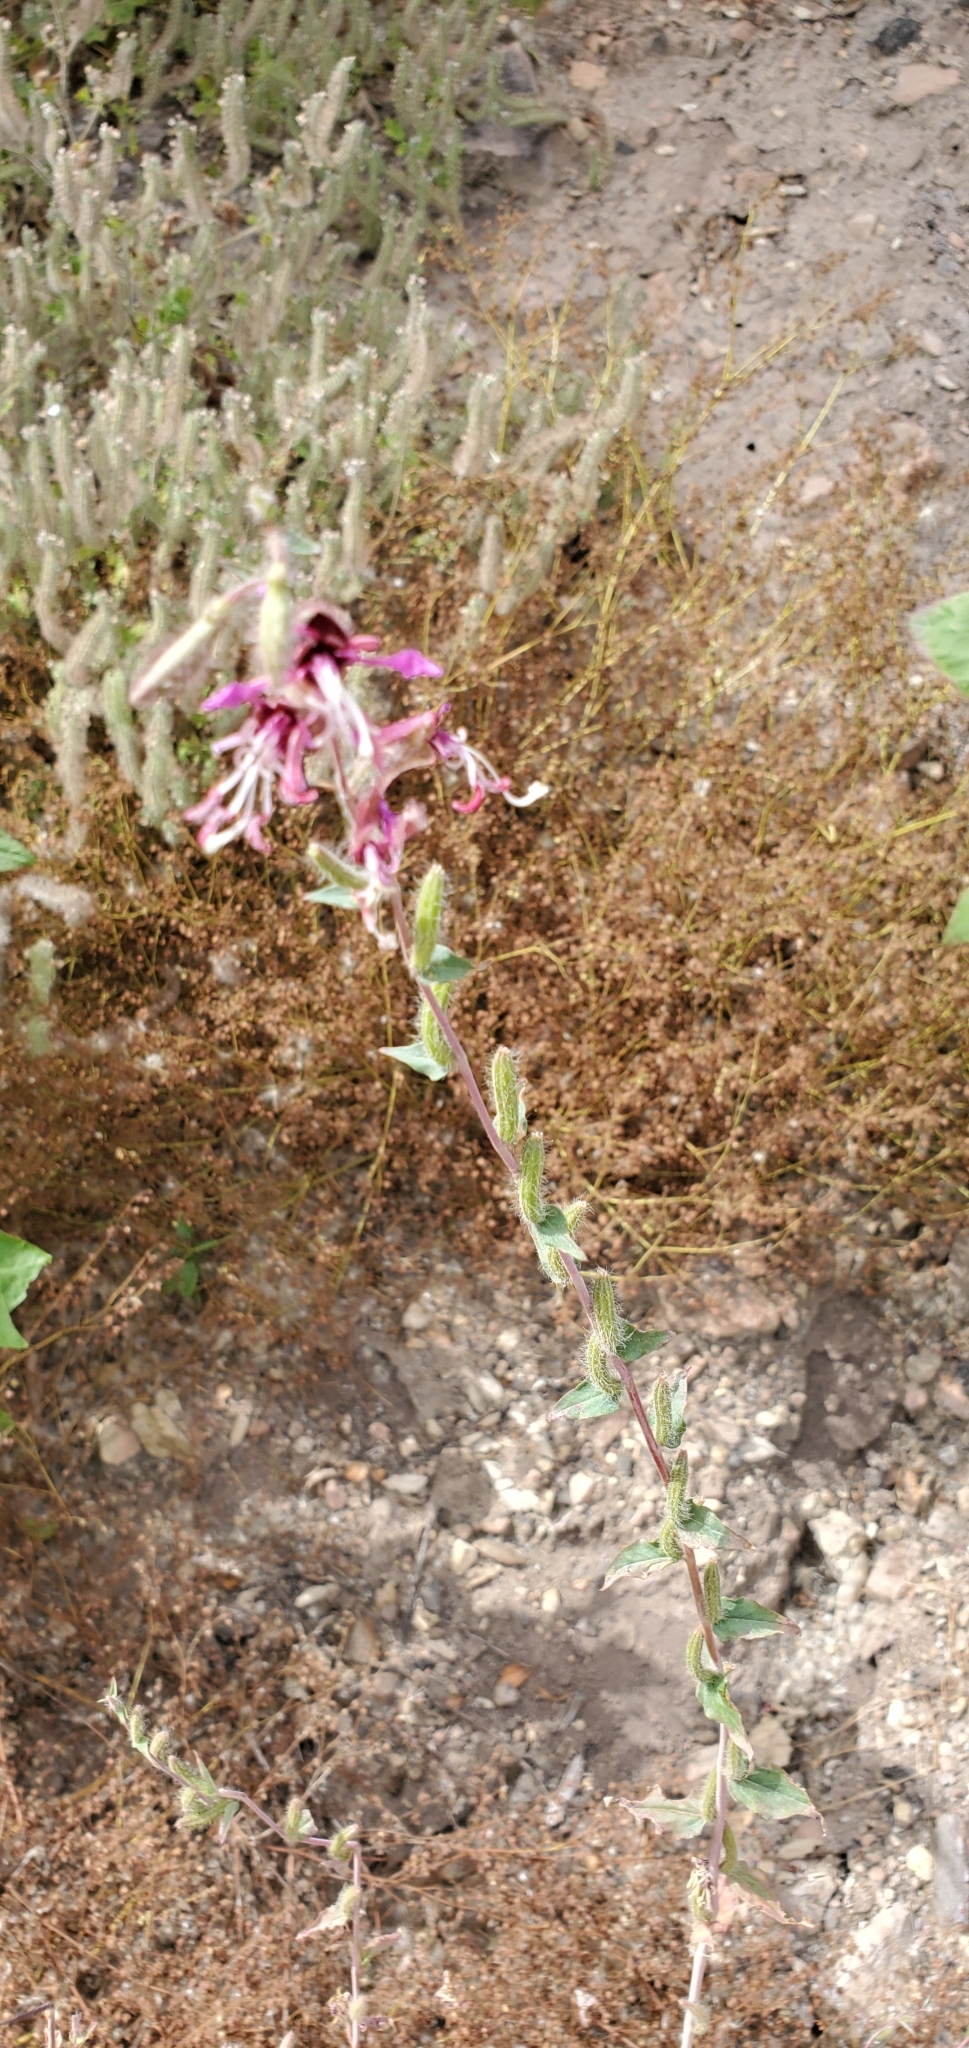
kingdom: Plantae
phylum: Tracheophyta
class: Magnoliopsida
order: Myrtales
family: Onagraceae
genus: Clarkia
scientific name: Clarkia unguiculata
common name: Clarkia
